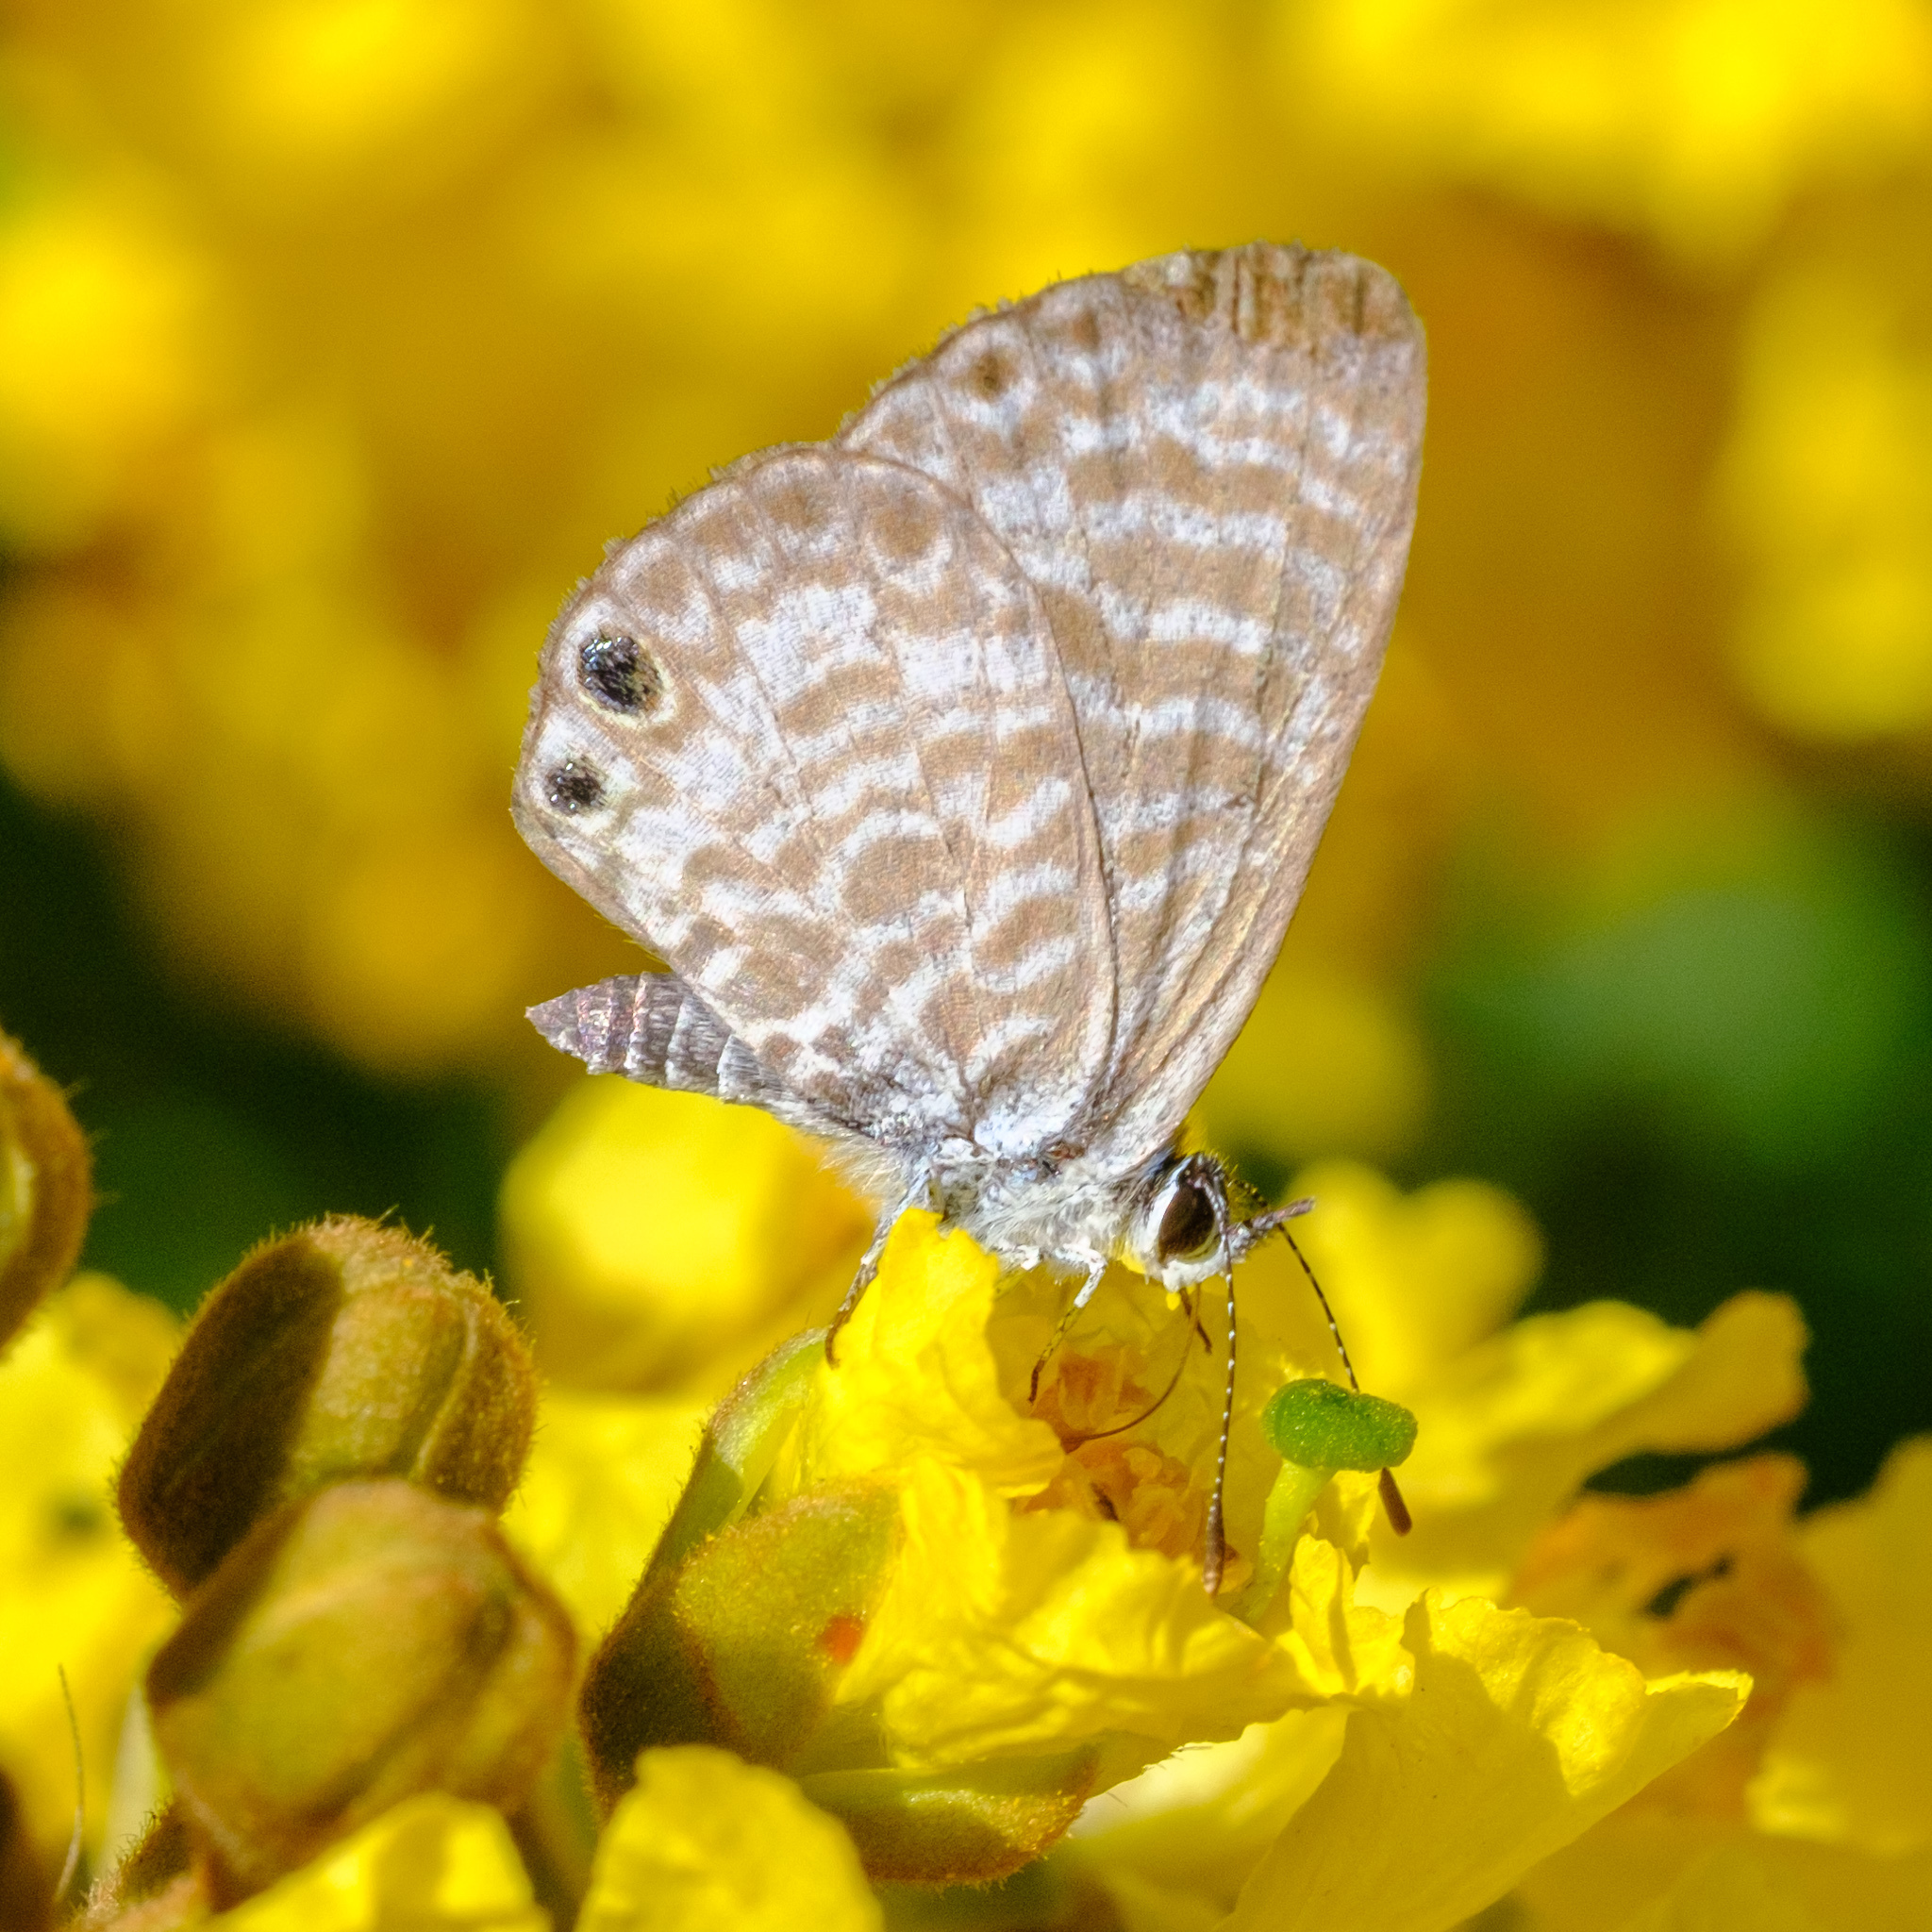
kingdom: Animalia
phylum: Arthropoda
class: Insecta
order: Lepidoptera
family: Lycaenidae
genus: Leptotes
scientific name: Leptotes marina
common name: Marine blue
